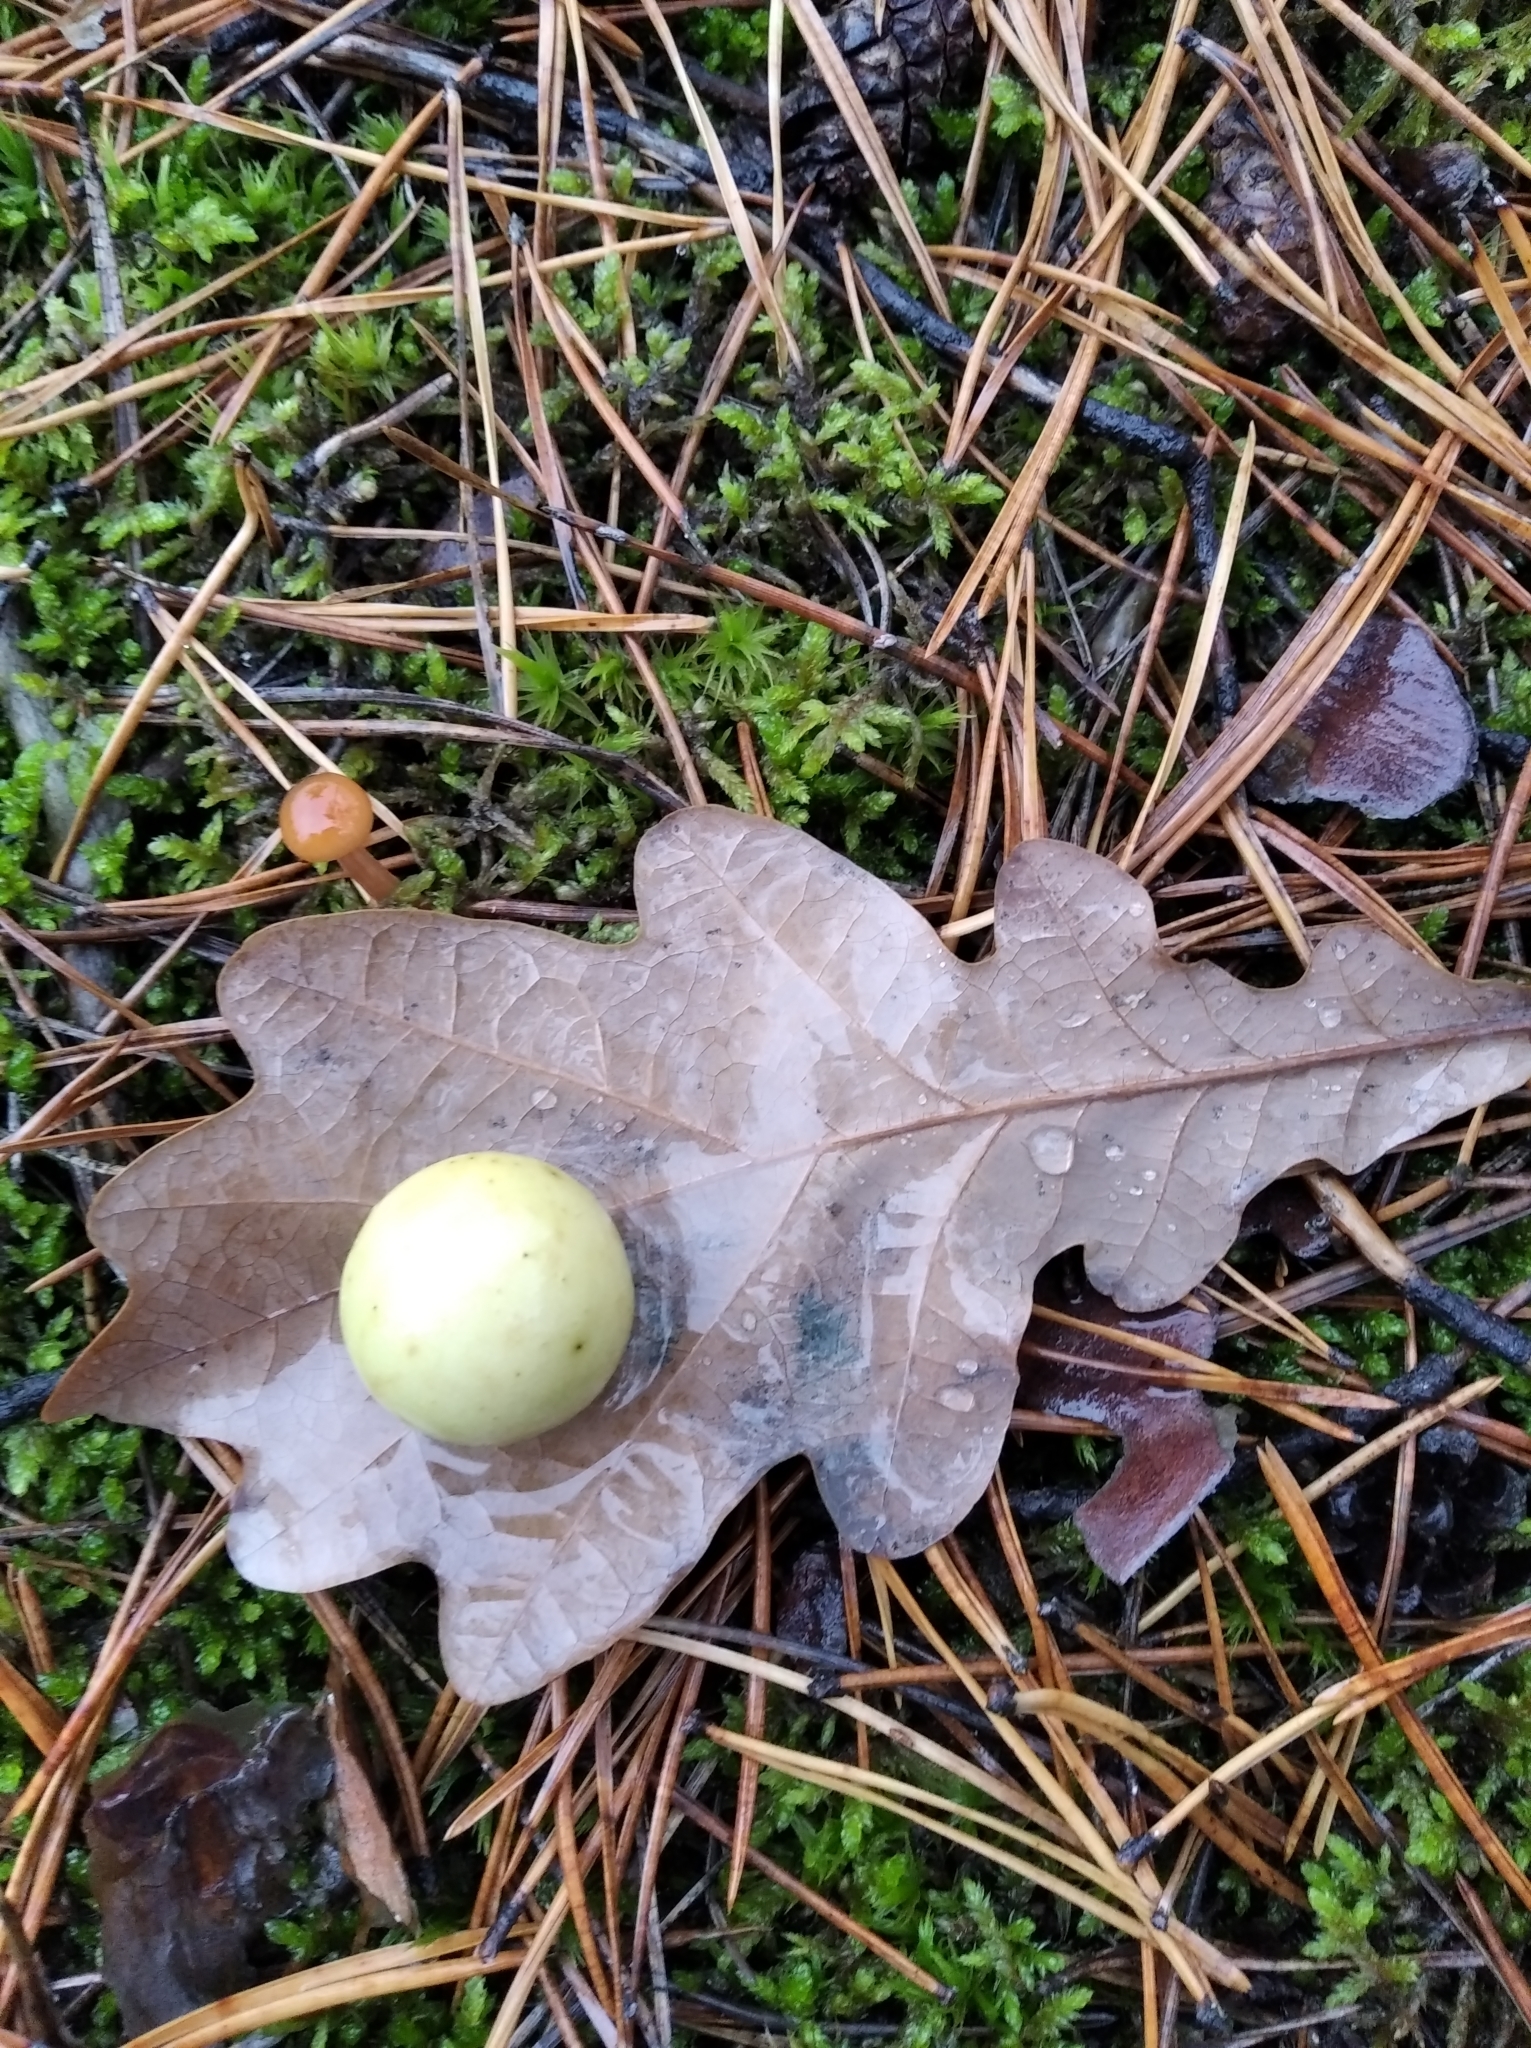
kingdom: Animalia
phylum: Arthropoda
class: Insecta
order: Hymenoptera
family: Cynipidae
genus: Cynips
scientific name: Cynips quercusfolii
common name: Cherry gall
